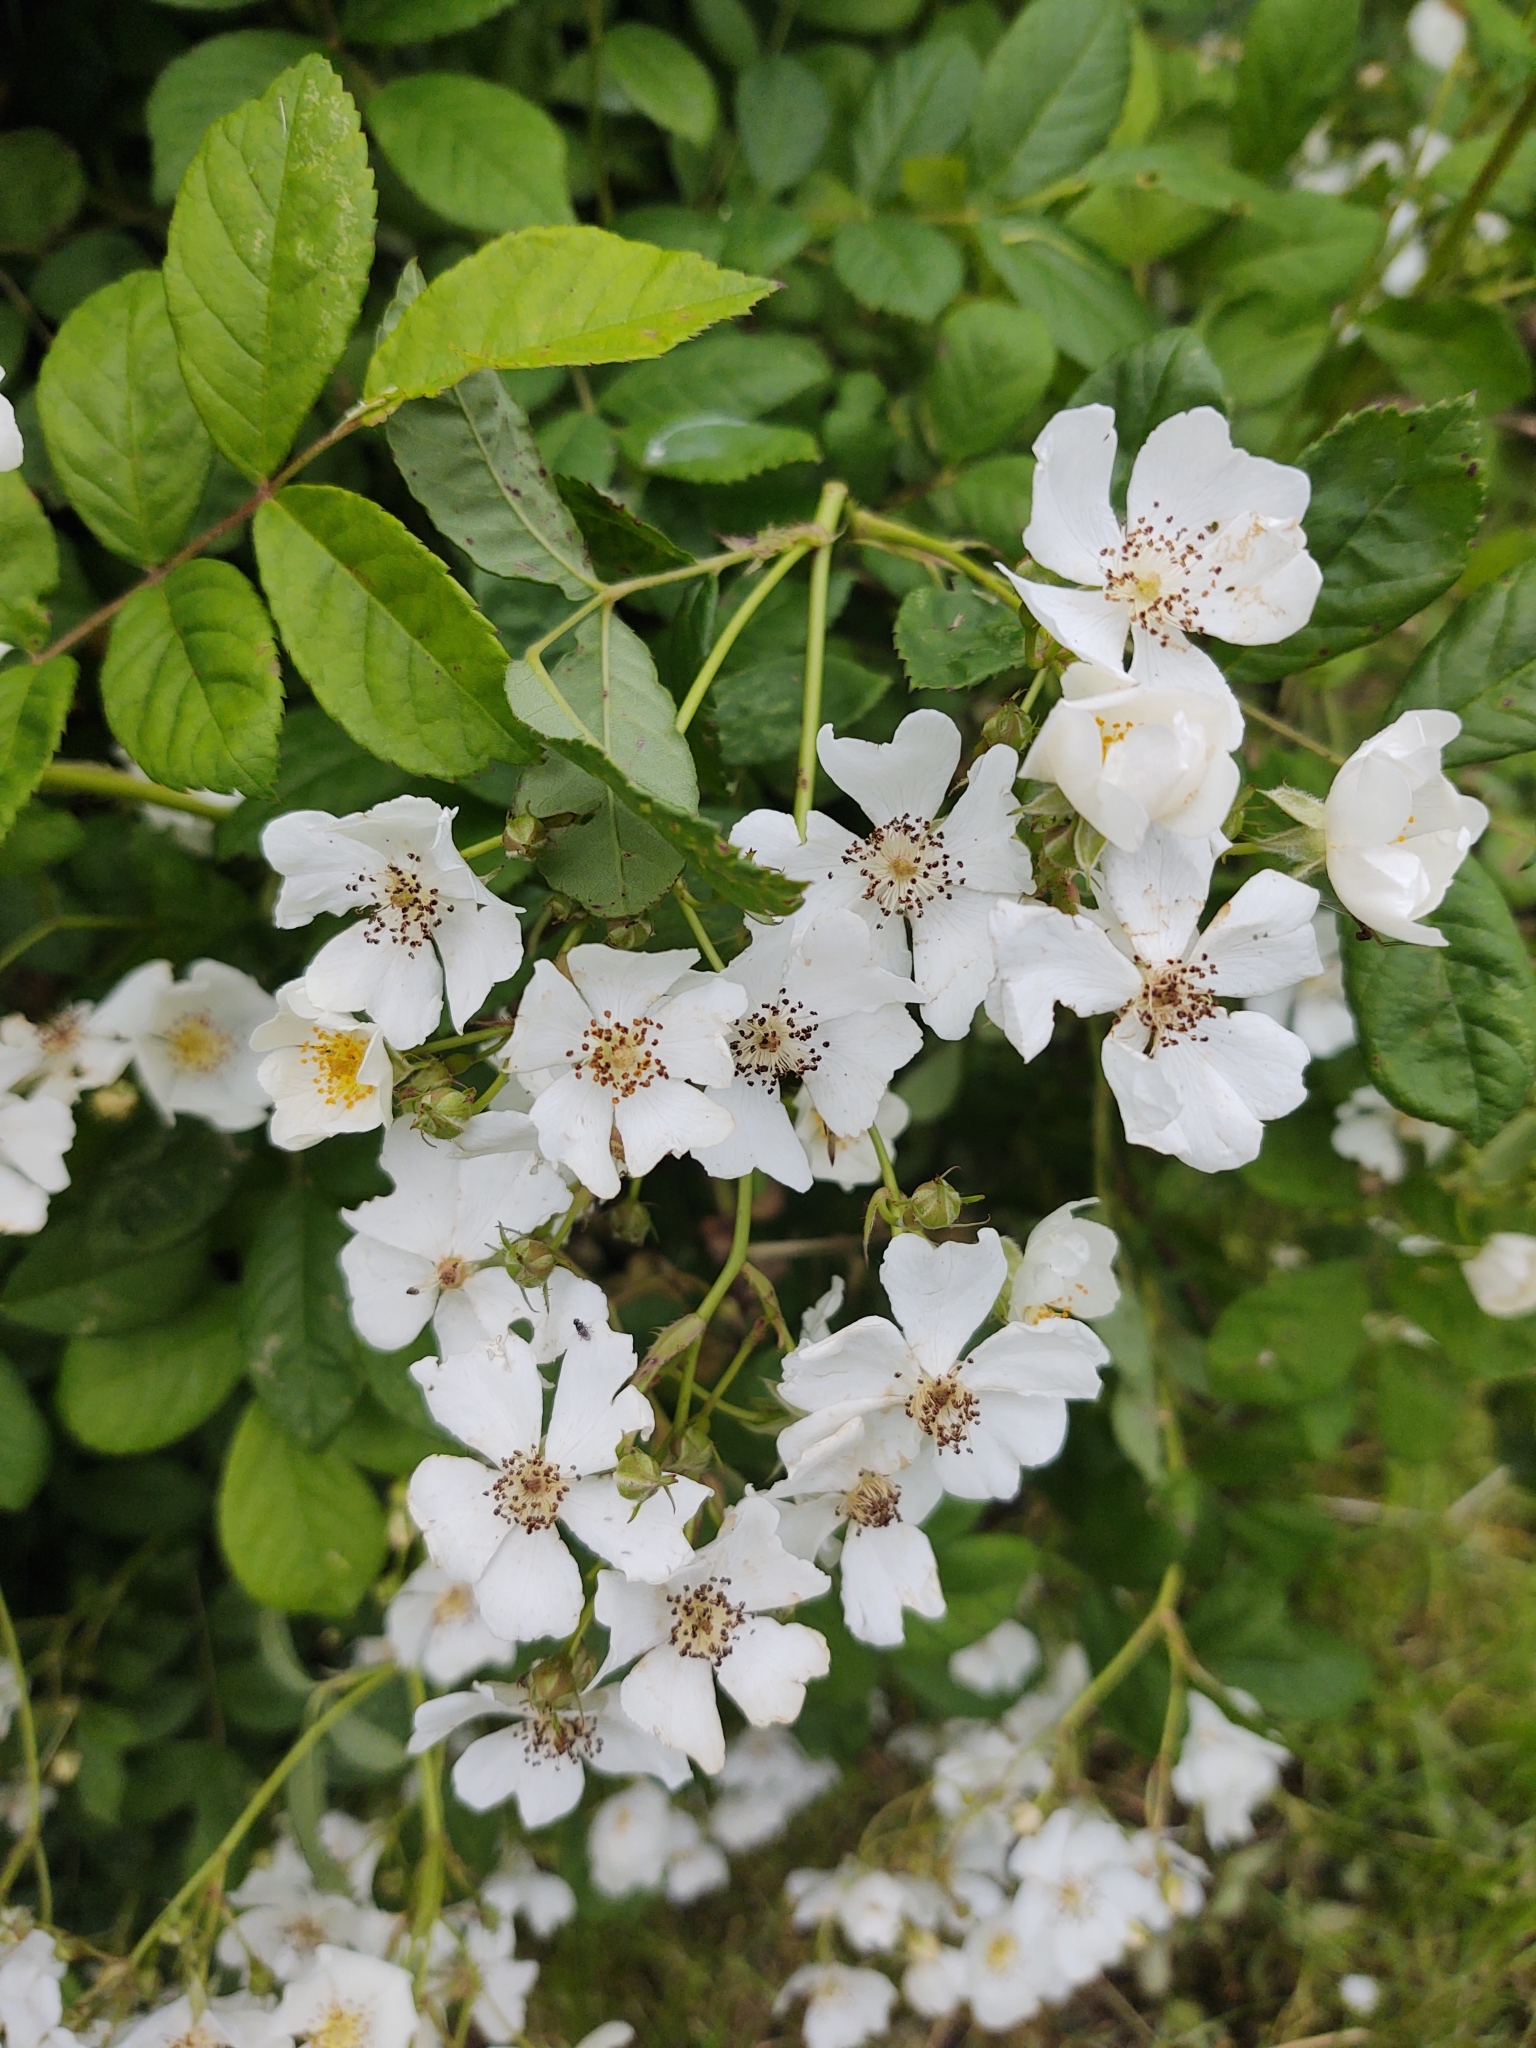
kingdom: Plantae
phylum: Tracheophyta
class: Magnoliopsida
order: Rosales
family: Rosaceae
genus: Rosa
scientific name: Rosa multiflora
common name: Multiflora rose
